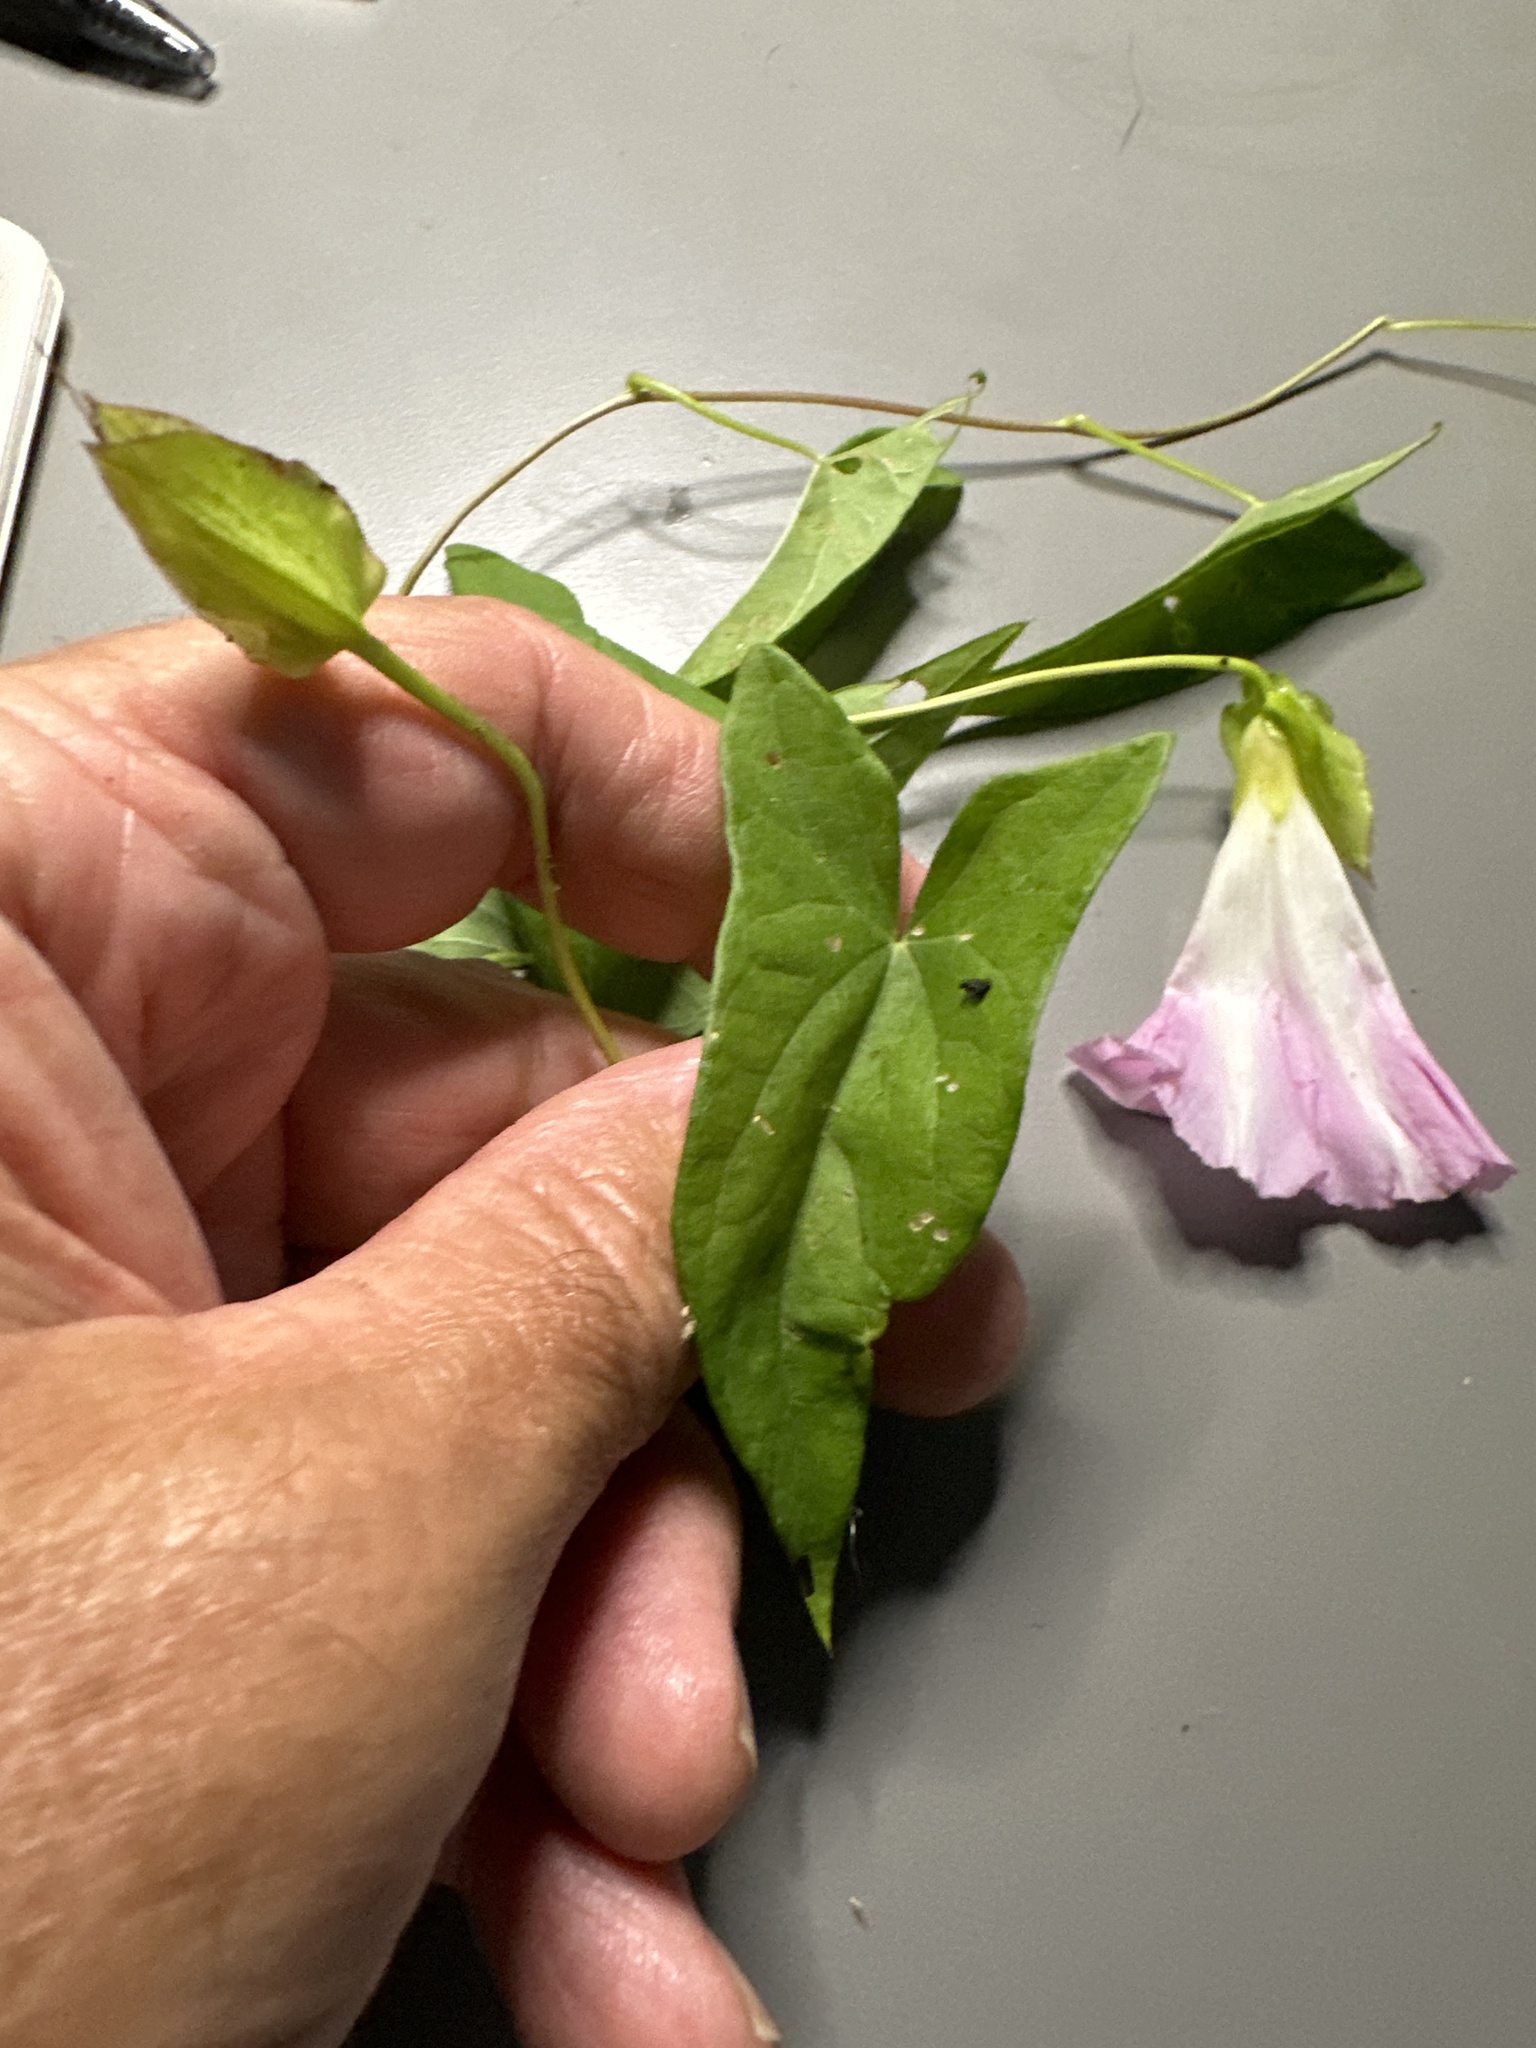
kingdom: Plantae
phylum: Tracheophyta
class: Magnoliopsida
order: Solanales
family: Convolvulaceae
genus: Calystegia
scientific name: Calystegia sepium
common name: Hedge bindweed
